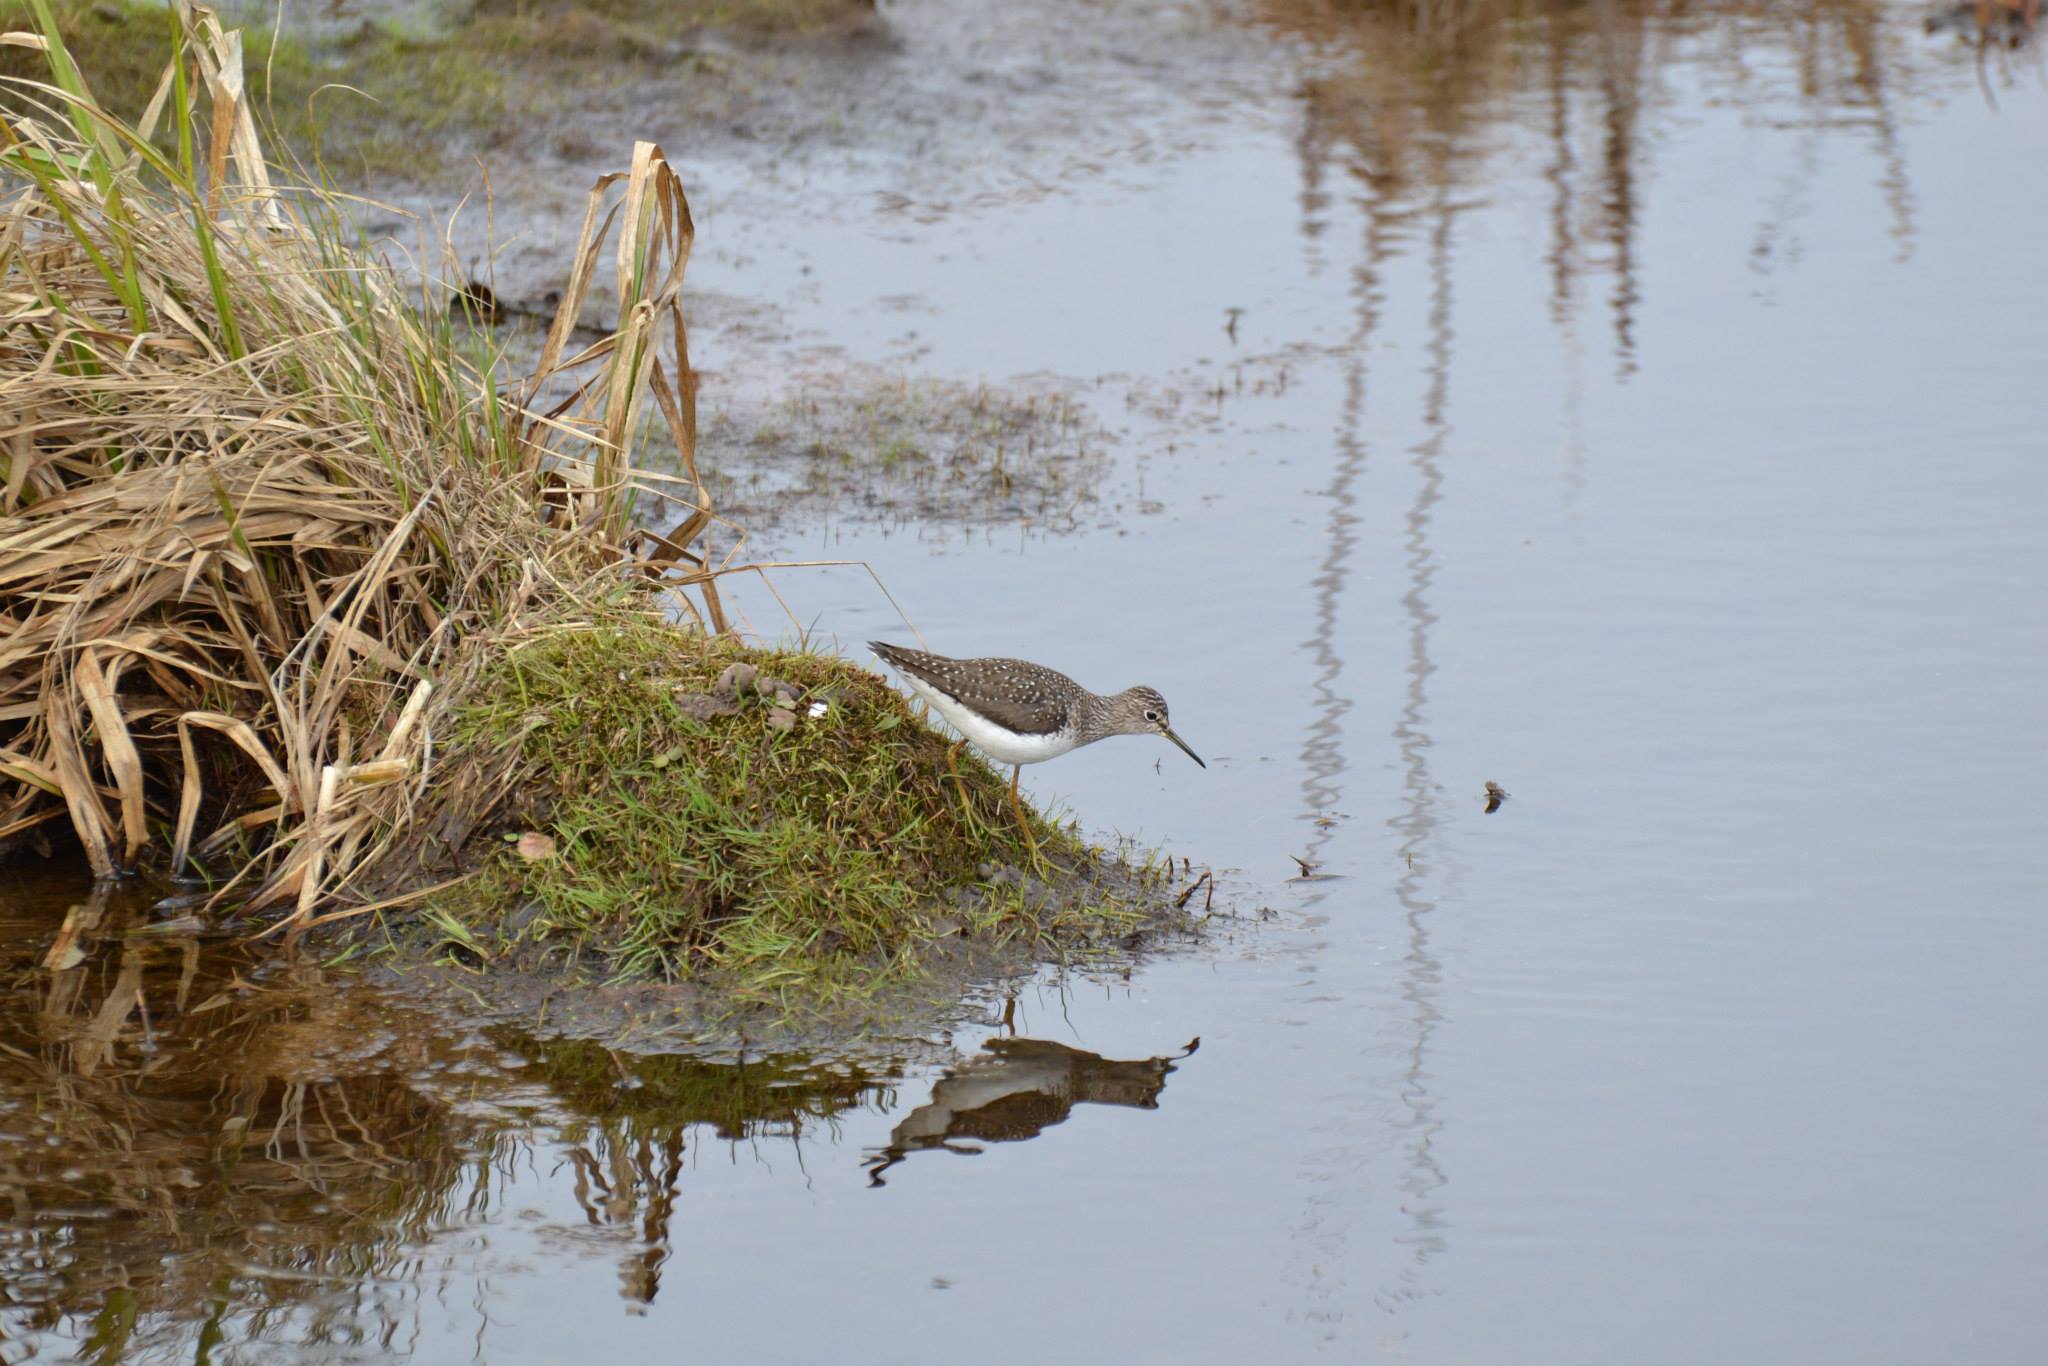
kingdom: Animalia
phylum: Chordata
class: Aves
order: Charadriiformes
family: Scolopacidae
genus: Tringa
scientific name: Tringa solitaria
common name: Solitary sandpiper
